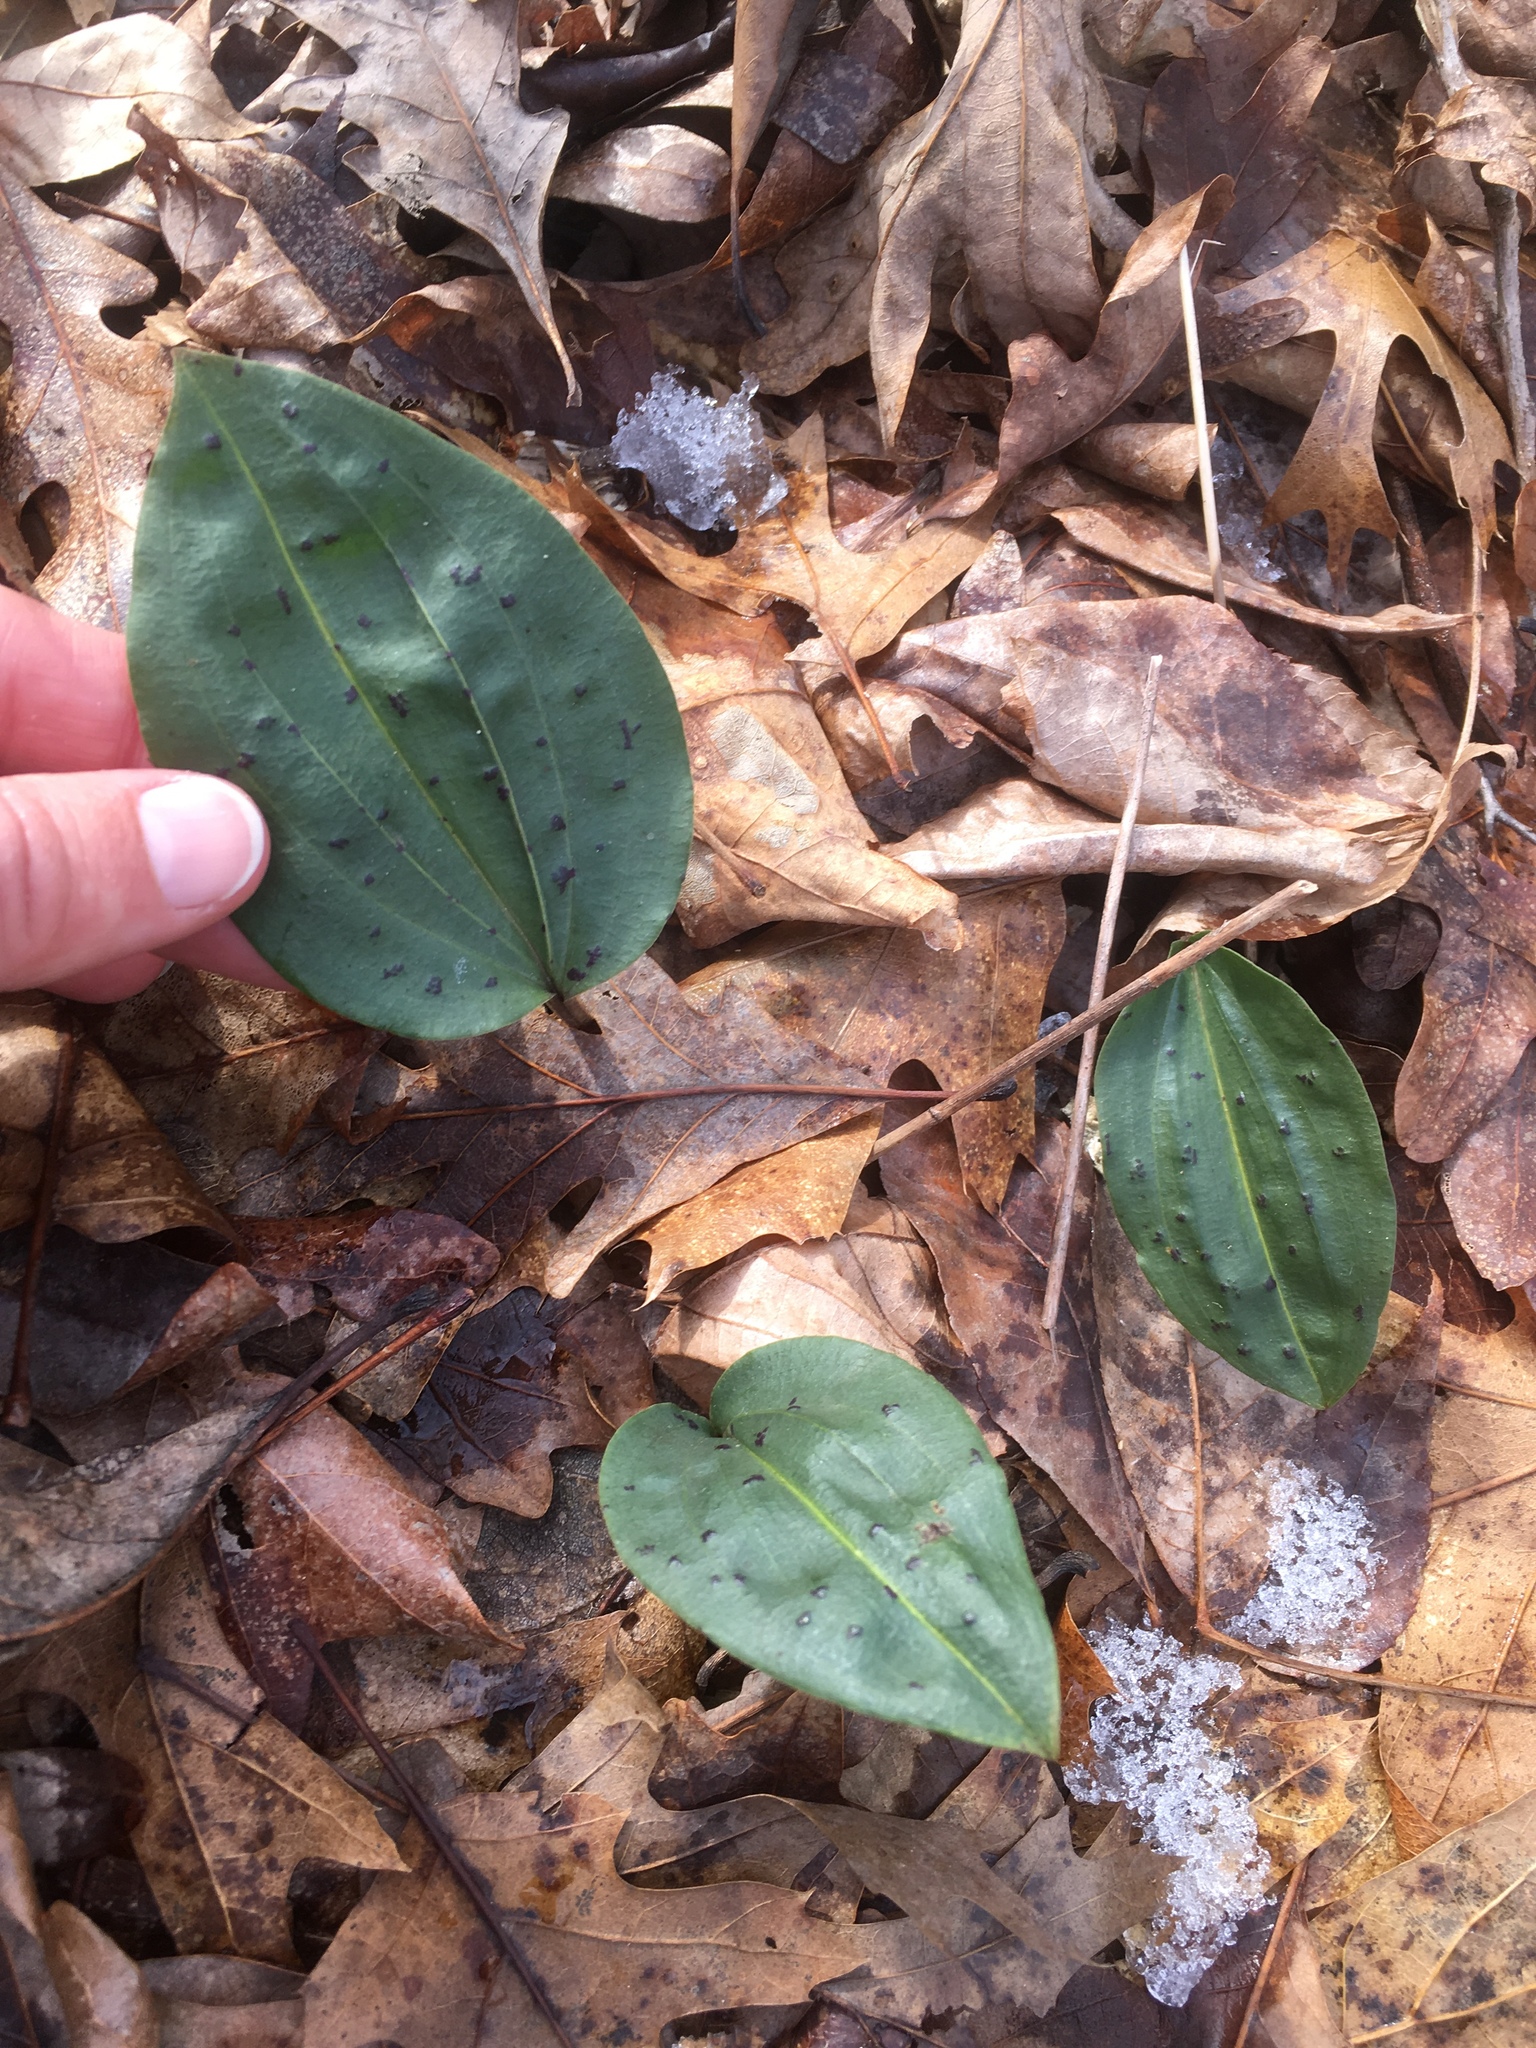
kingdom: Plantae
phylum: Tracheophyta
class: Liliopsida
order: Asparagales
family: Orchidaceae
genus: Tipularia
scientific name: Tipularia discolor
